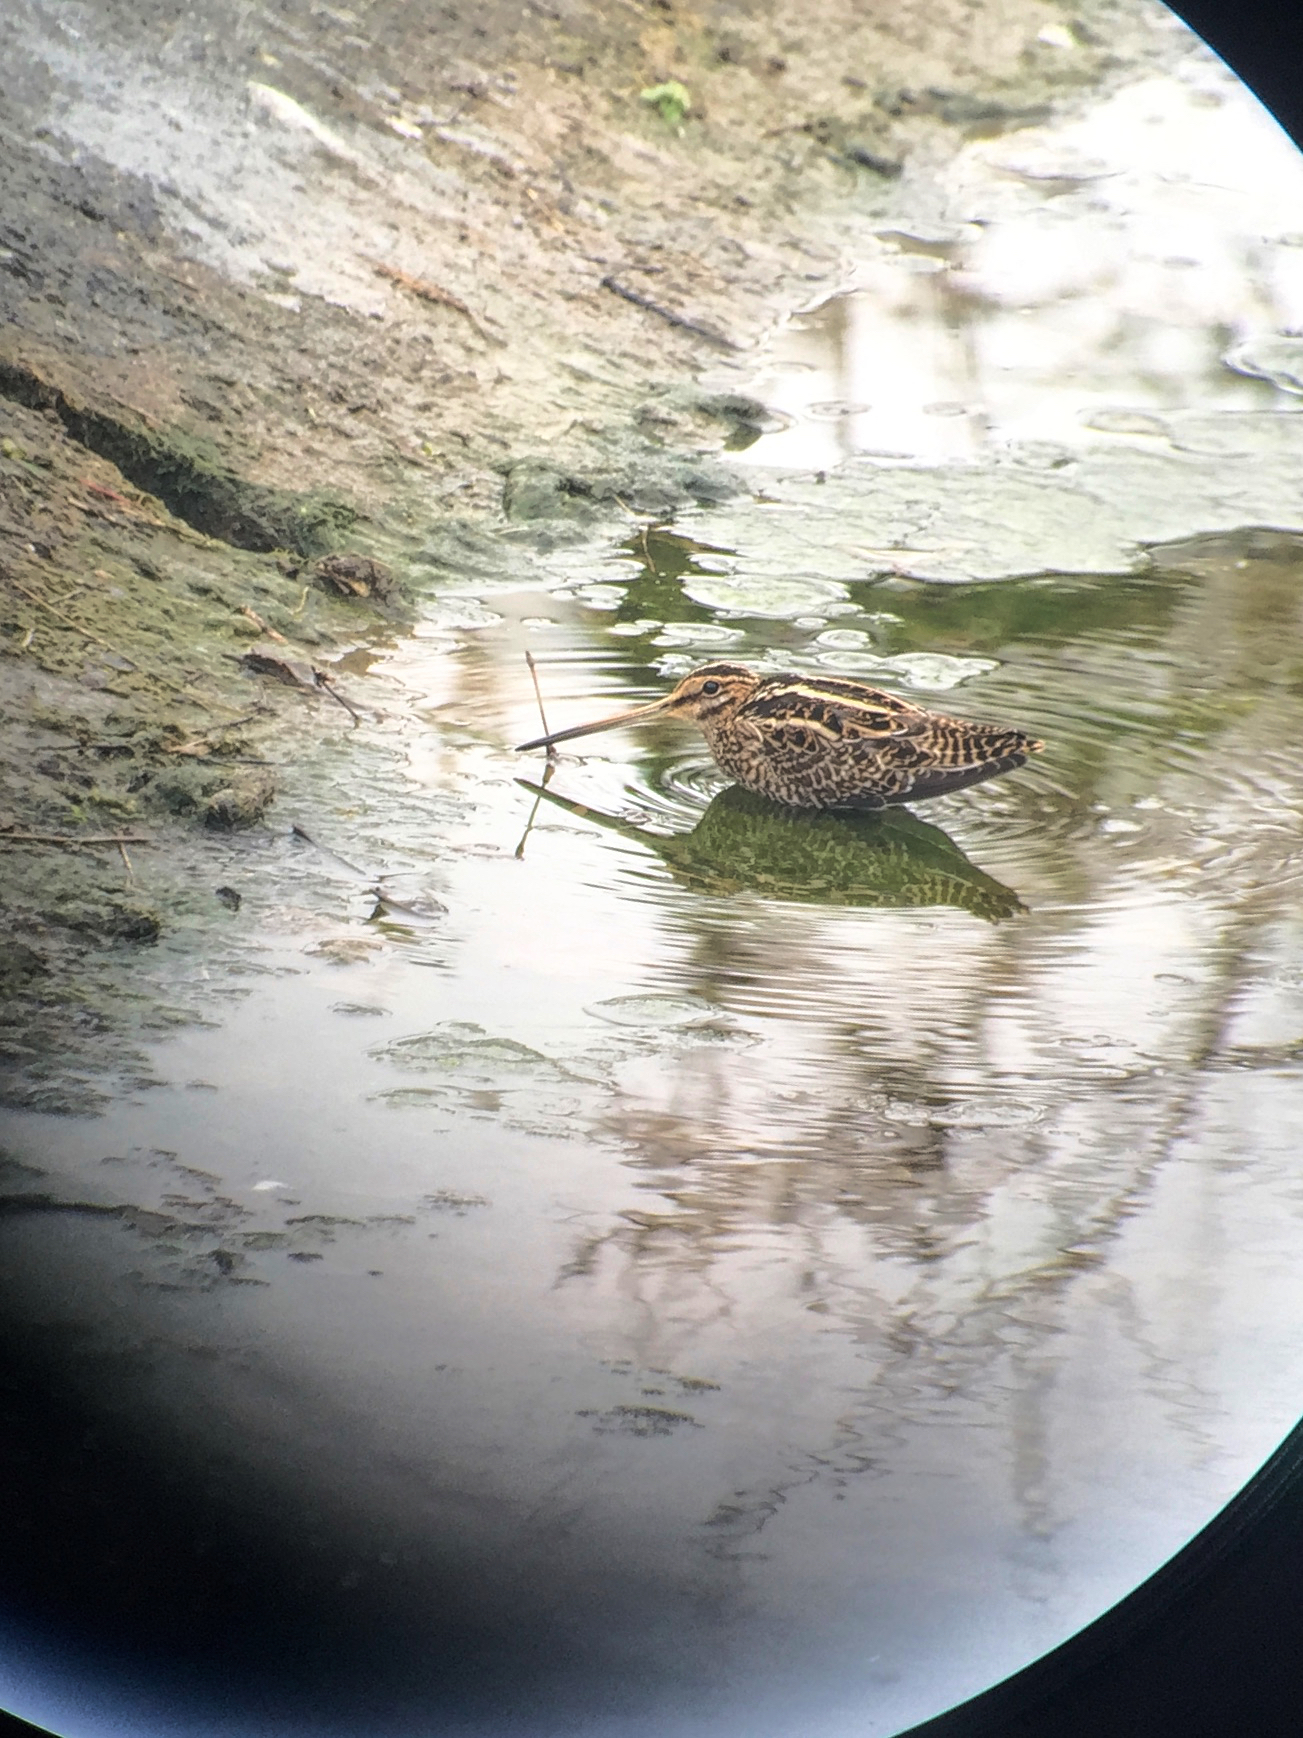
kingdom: Animalia
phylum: Chordata
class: Aves
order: Charadriiformes
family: Scolopacidae
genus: Gallinago
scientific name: Gallinago gallinago
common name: Common snipe
